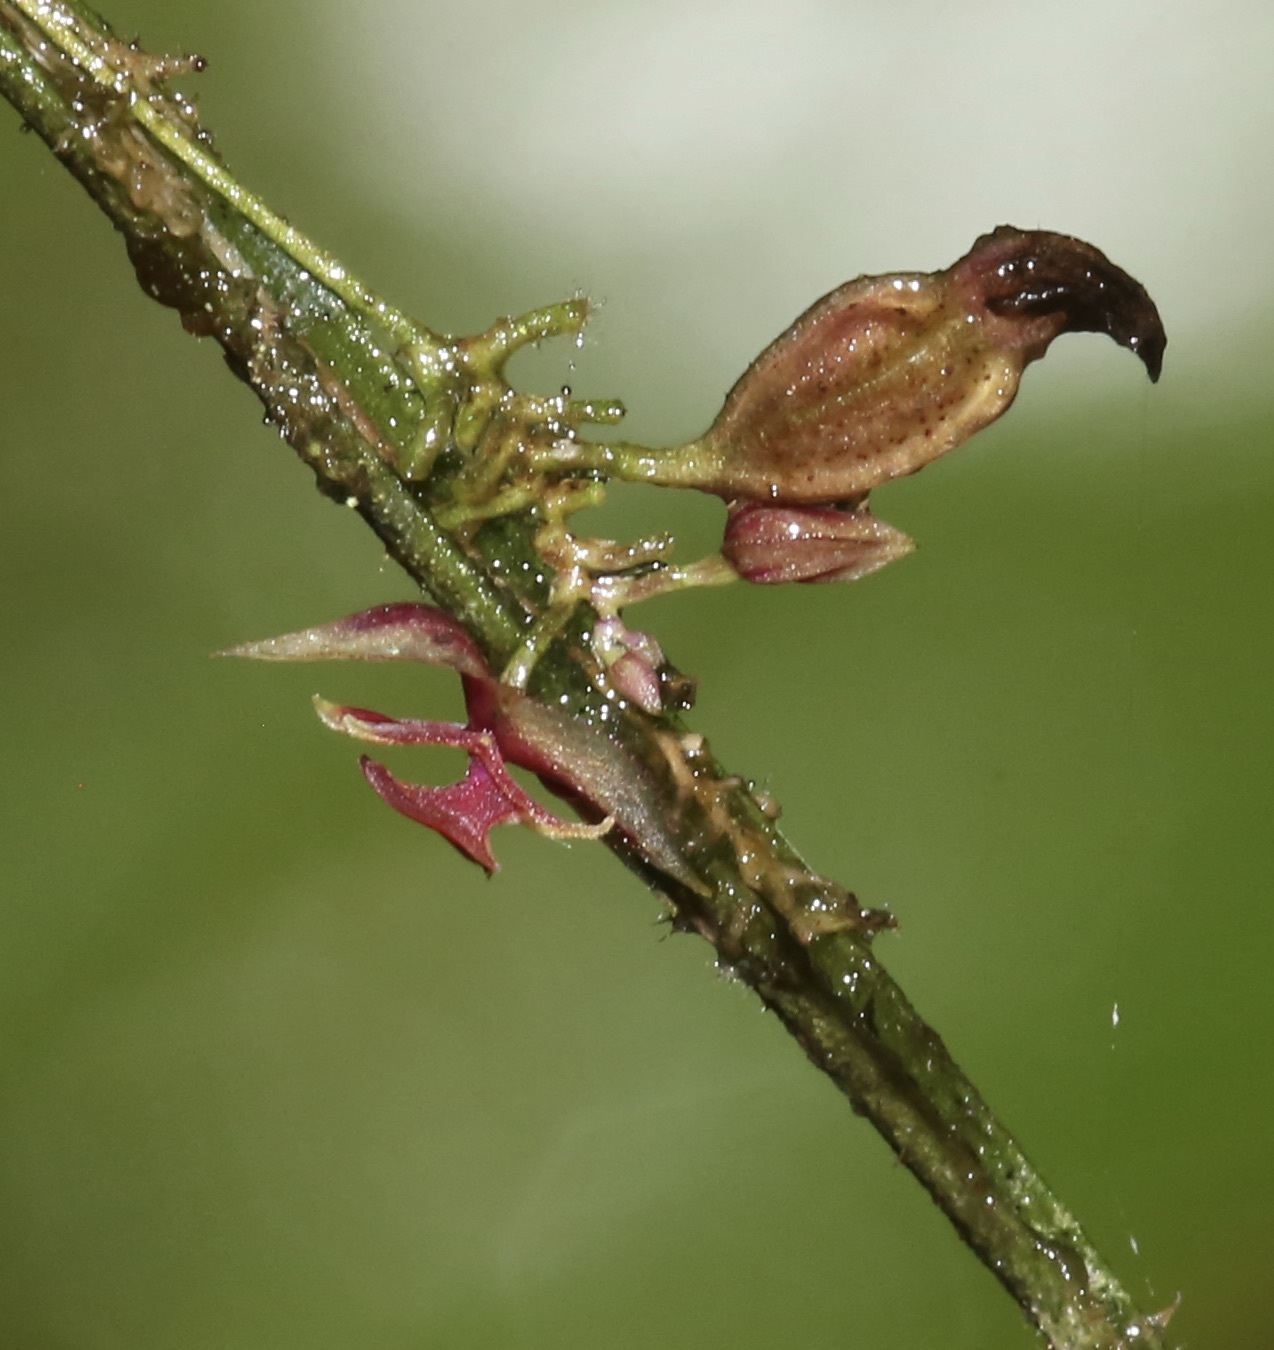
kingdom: Plantae
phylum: Tracheophyta
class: Liliopsida
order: Asparagales
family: Orchidaceae
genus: Lepanthes
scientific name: Lepanthes aciculifolia
